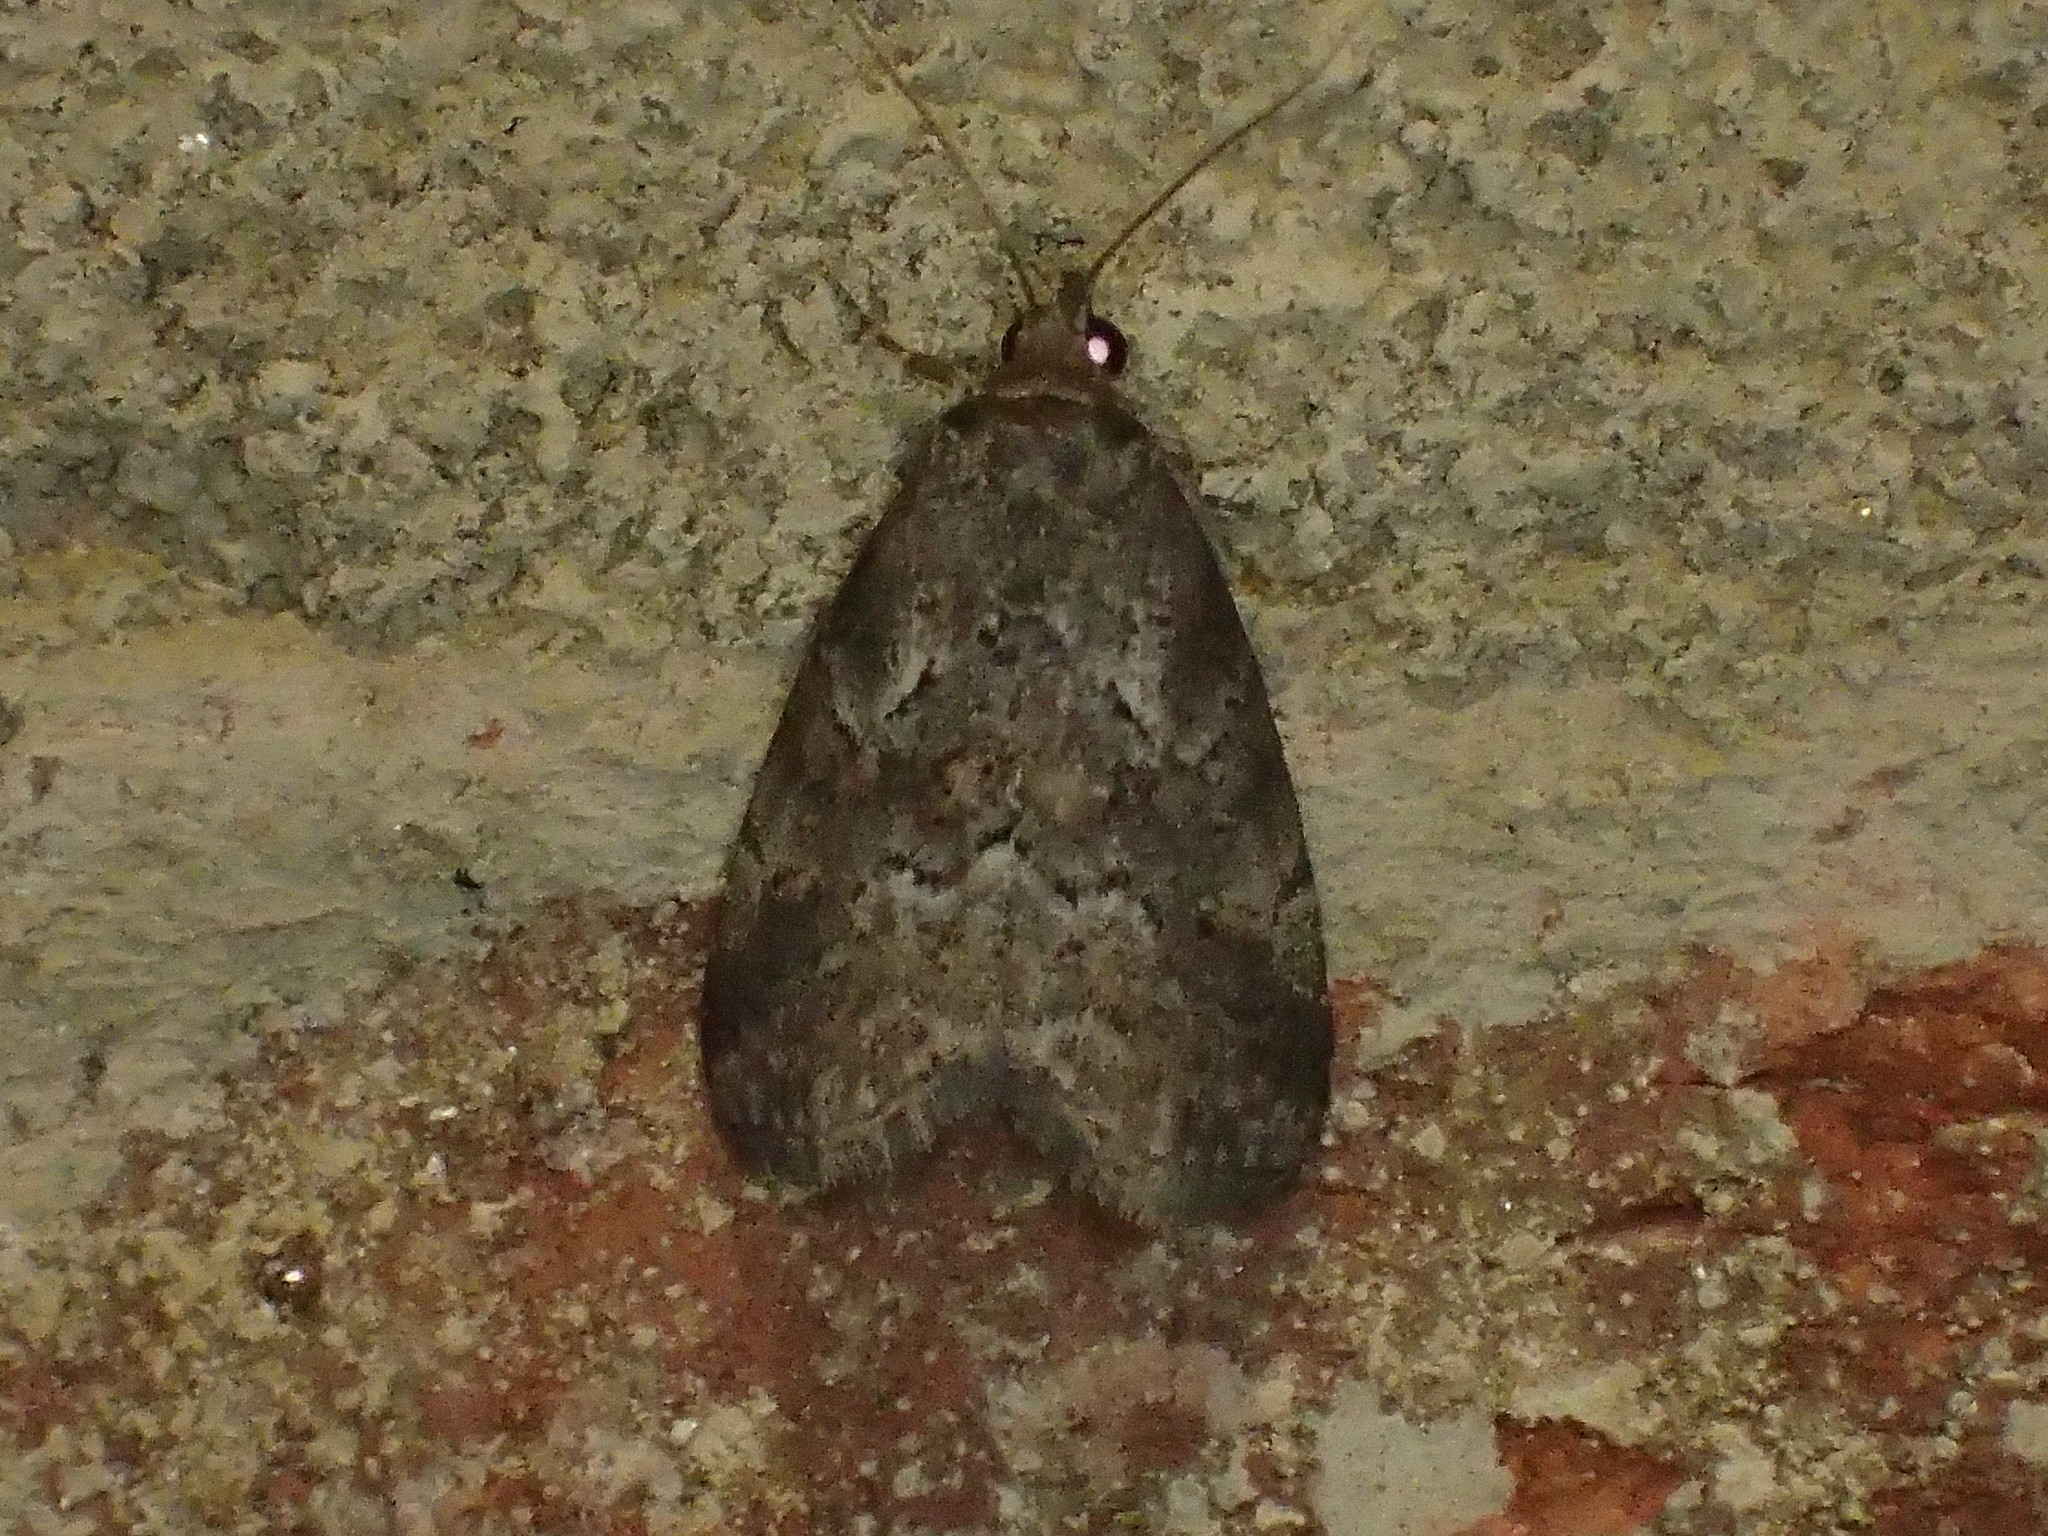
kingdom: Animalia
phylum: Arthropoda
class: Insecta
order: Lepidoptera
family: Erebidae
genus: Hyperstrotia
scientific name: Hyperstrotia nana
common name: White-lined graylet
